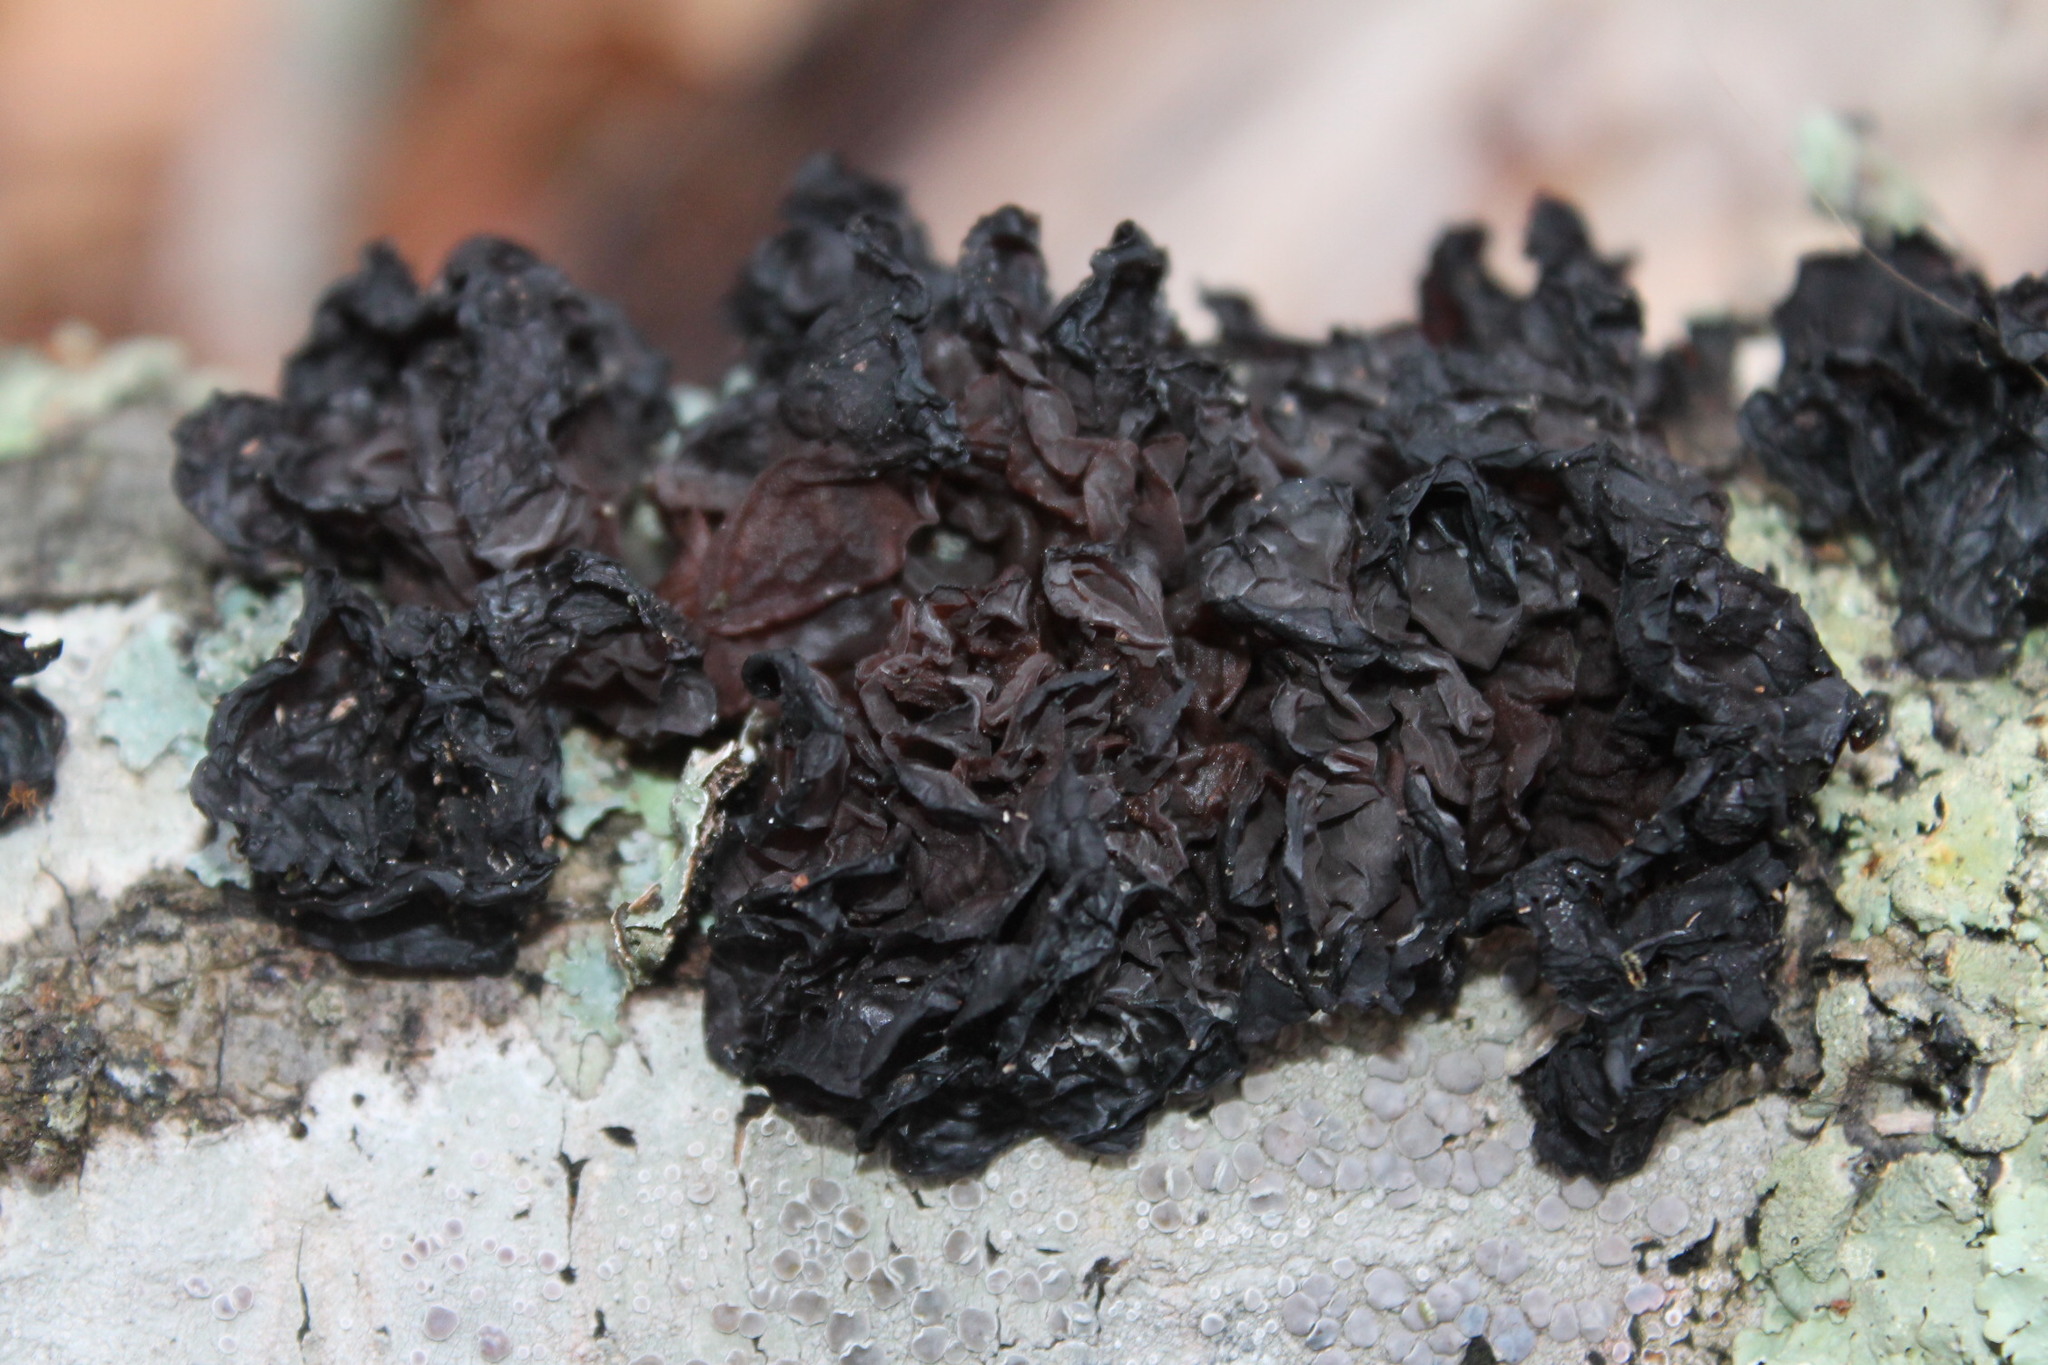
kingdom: Fungi
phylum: Basidiomycota
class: Agaricomycetes
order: Auriculariales
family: Auriculariaceae
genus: Exidia
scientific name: Exidia
